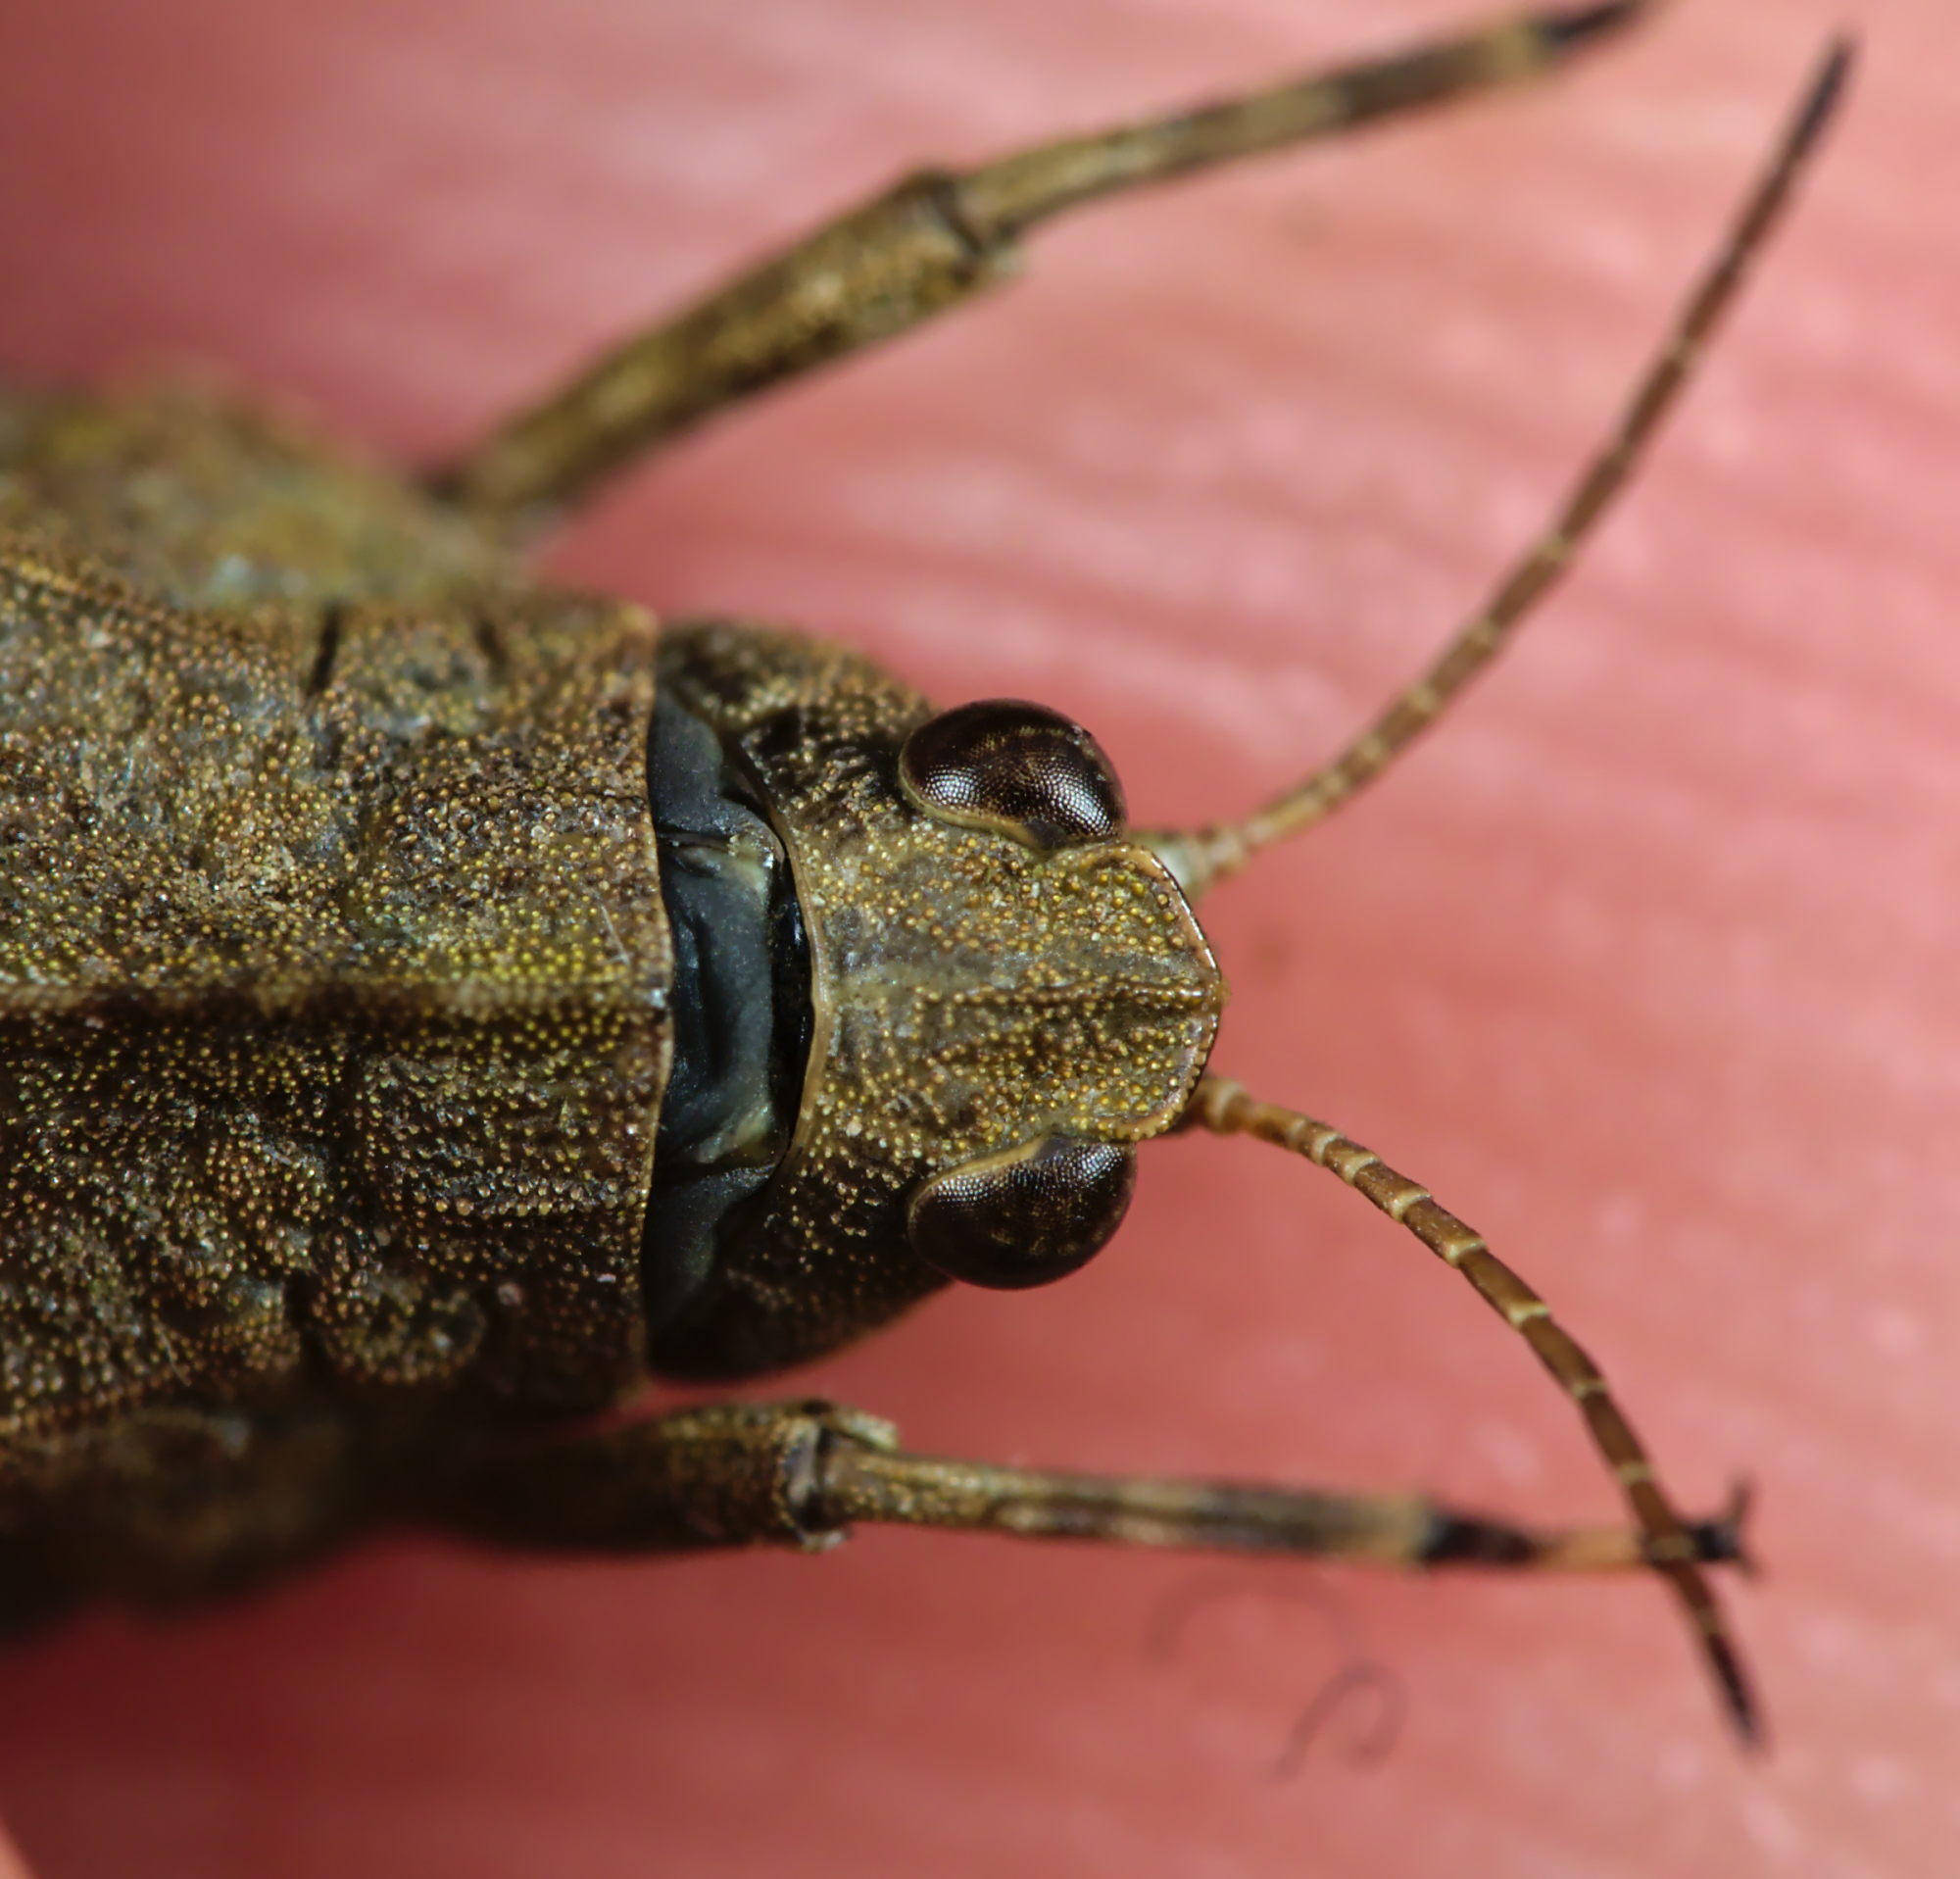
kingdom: Animalia
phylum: Arthropoda
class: Insecta
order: Orthoptera
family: Tetrigidae
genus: Tetrix
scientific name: Tetrix undulata
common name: Common groundhopper
